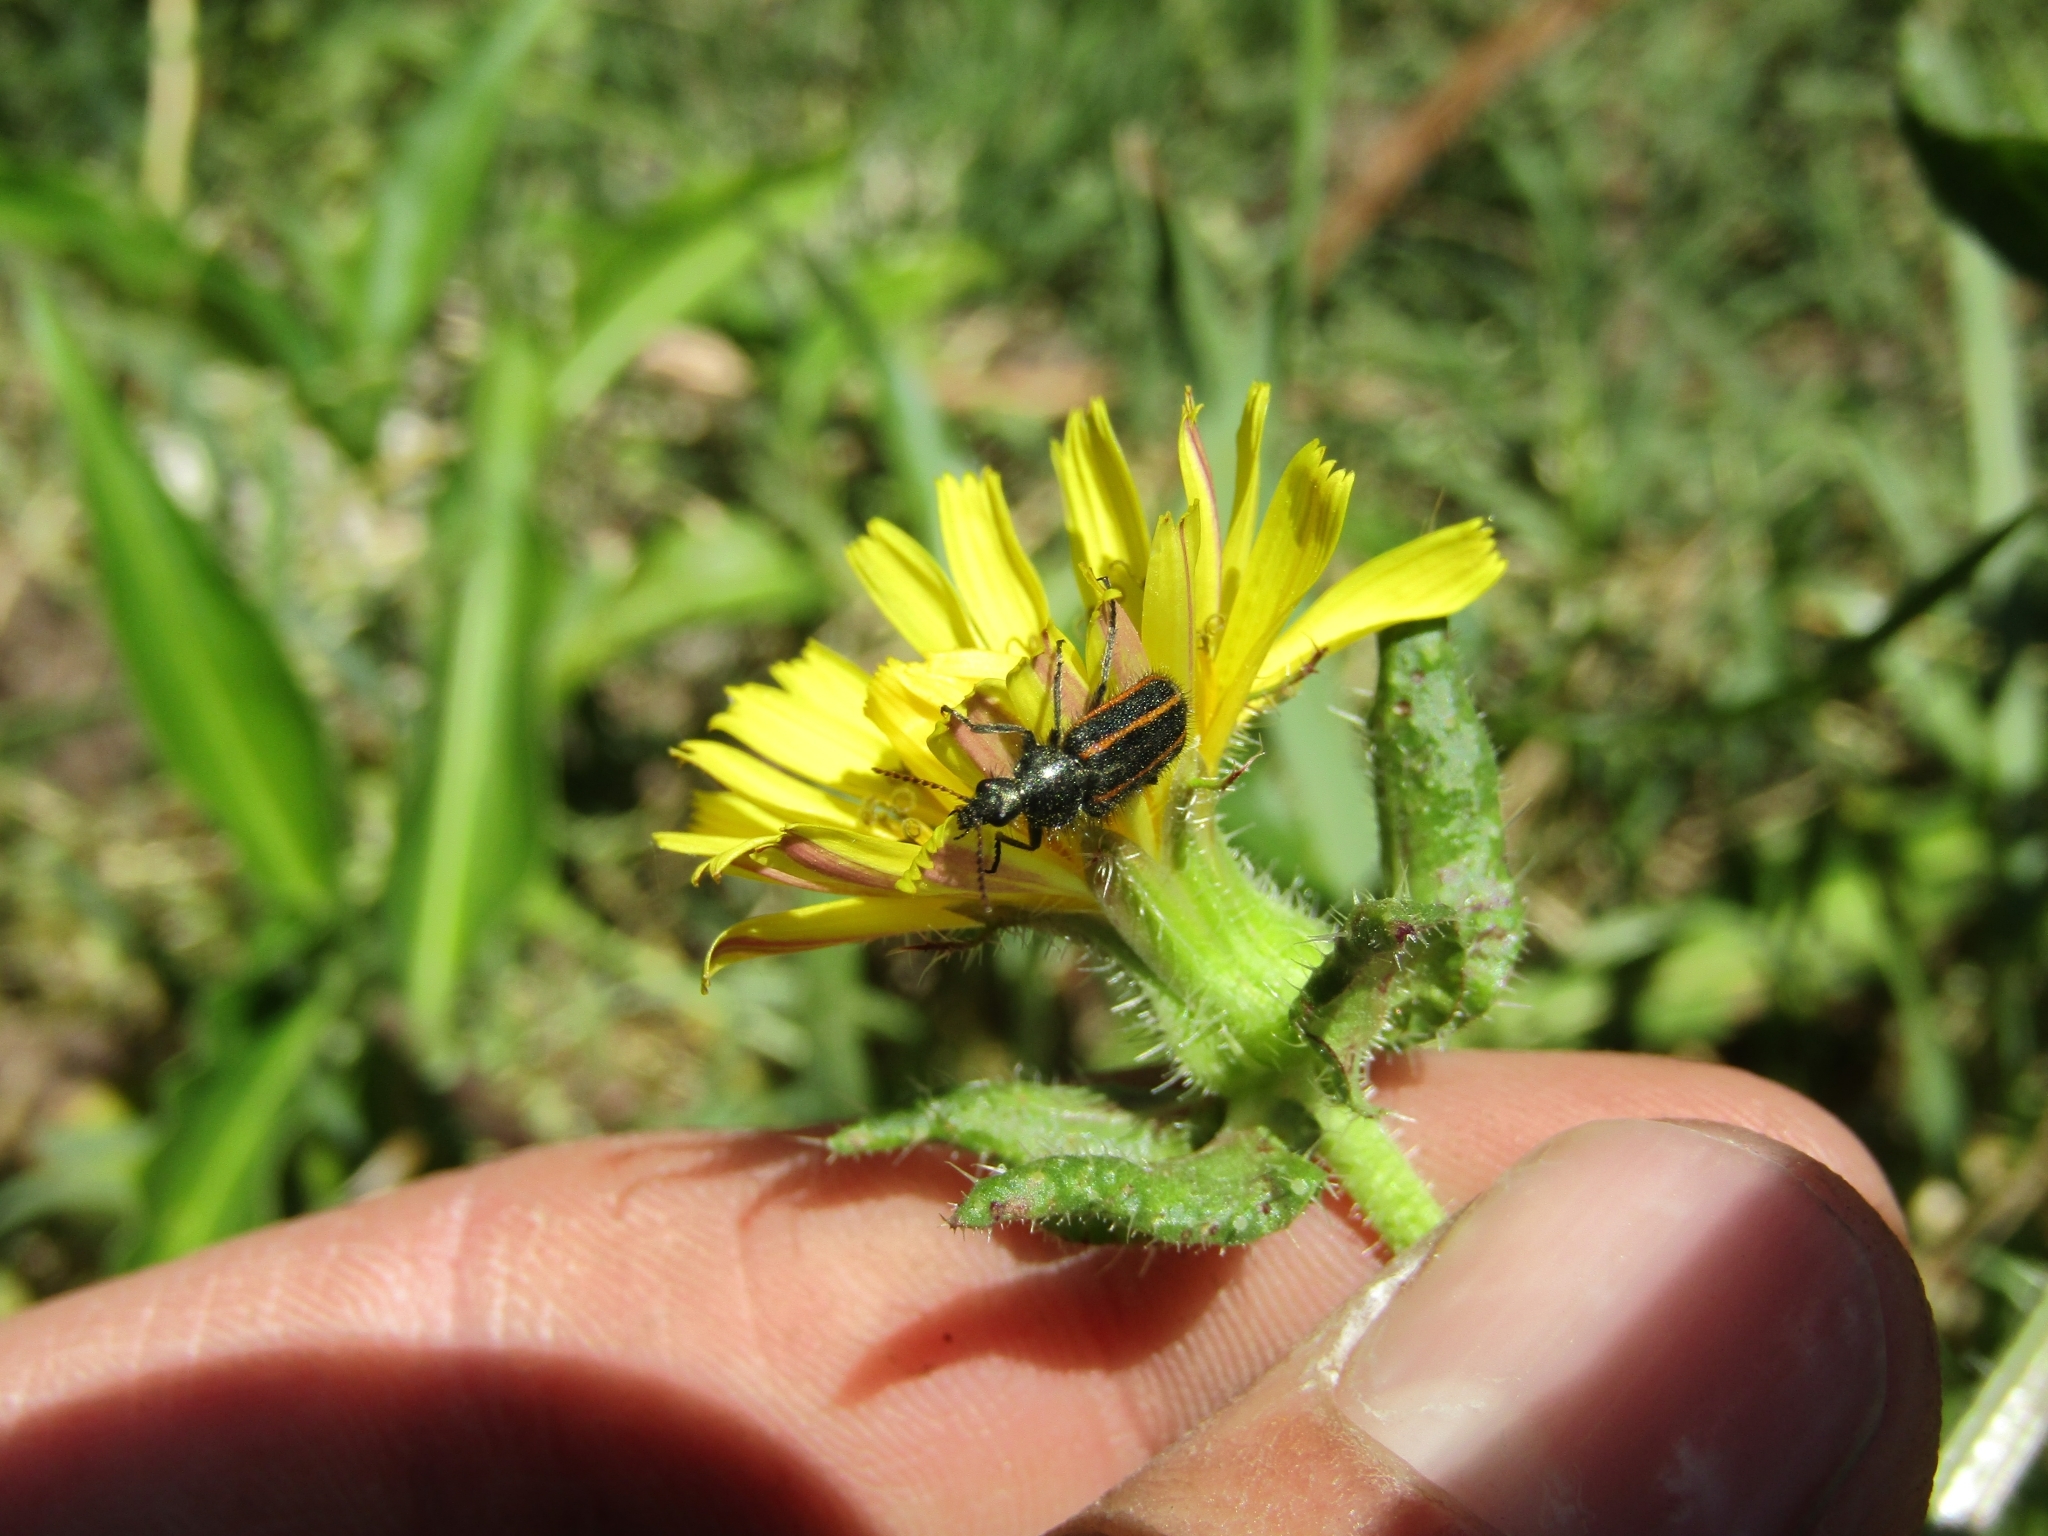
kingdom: Animalia
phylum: Arthropoda
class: Insecta
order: Coleoptera
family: Melyridae
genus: Astylus
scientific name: Astylus
